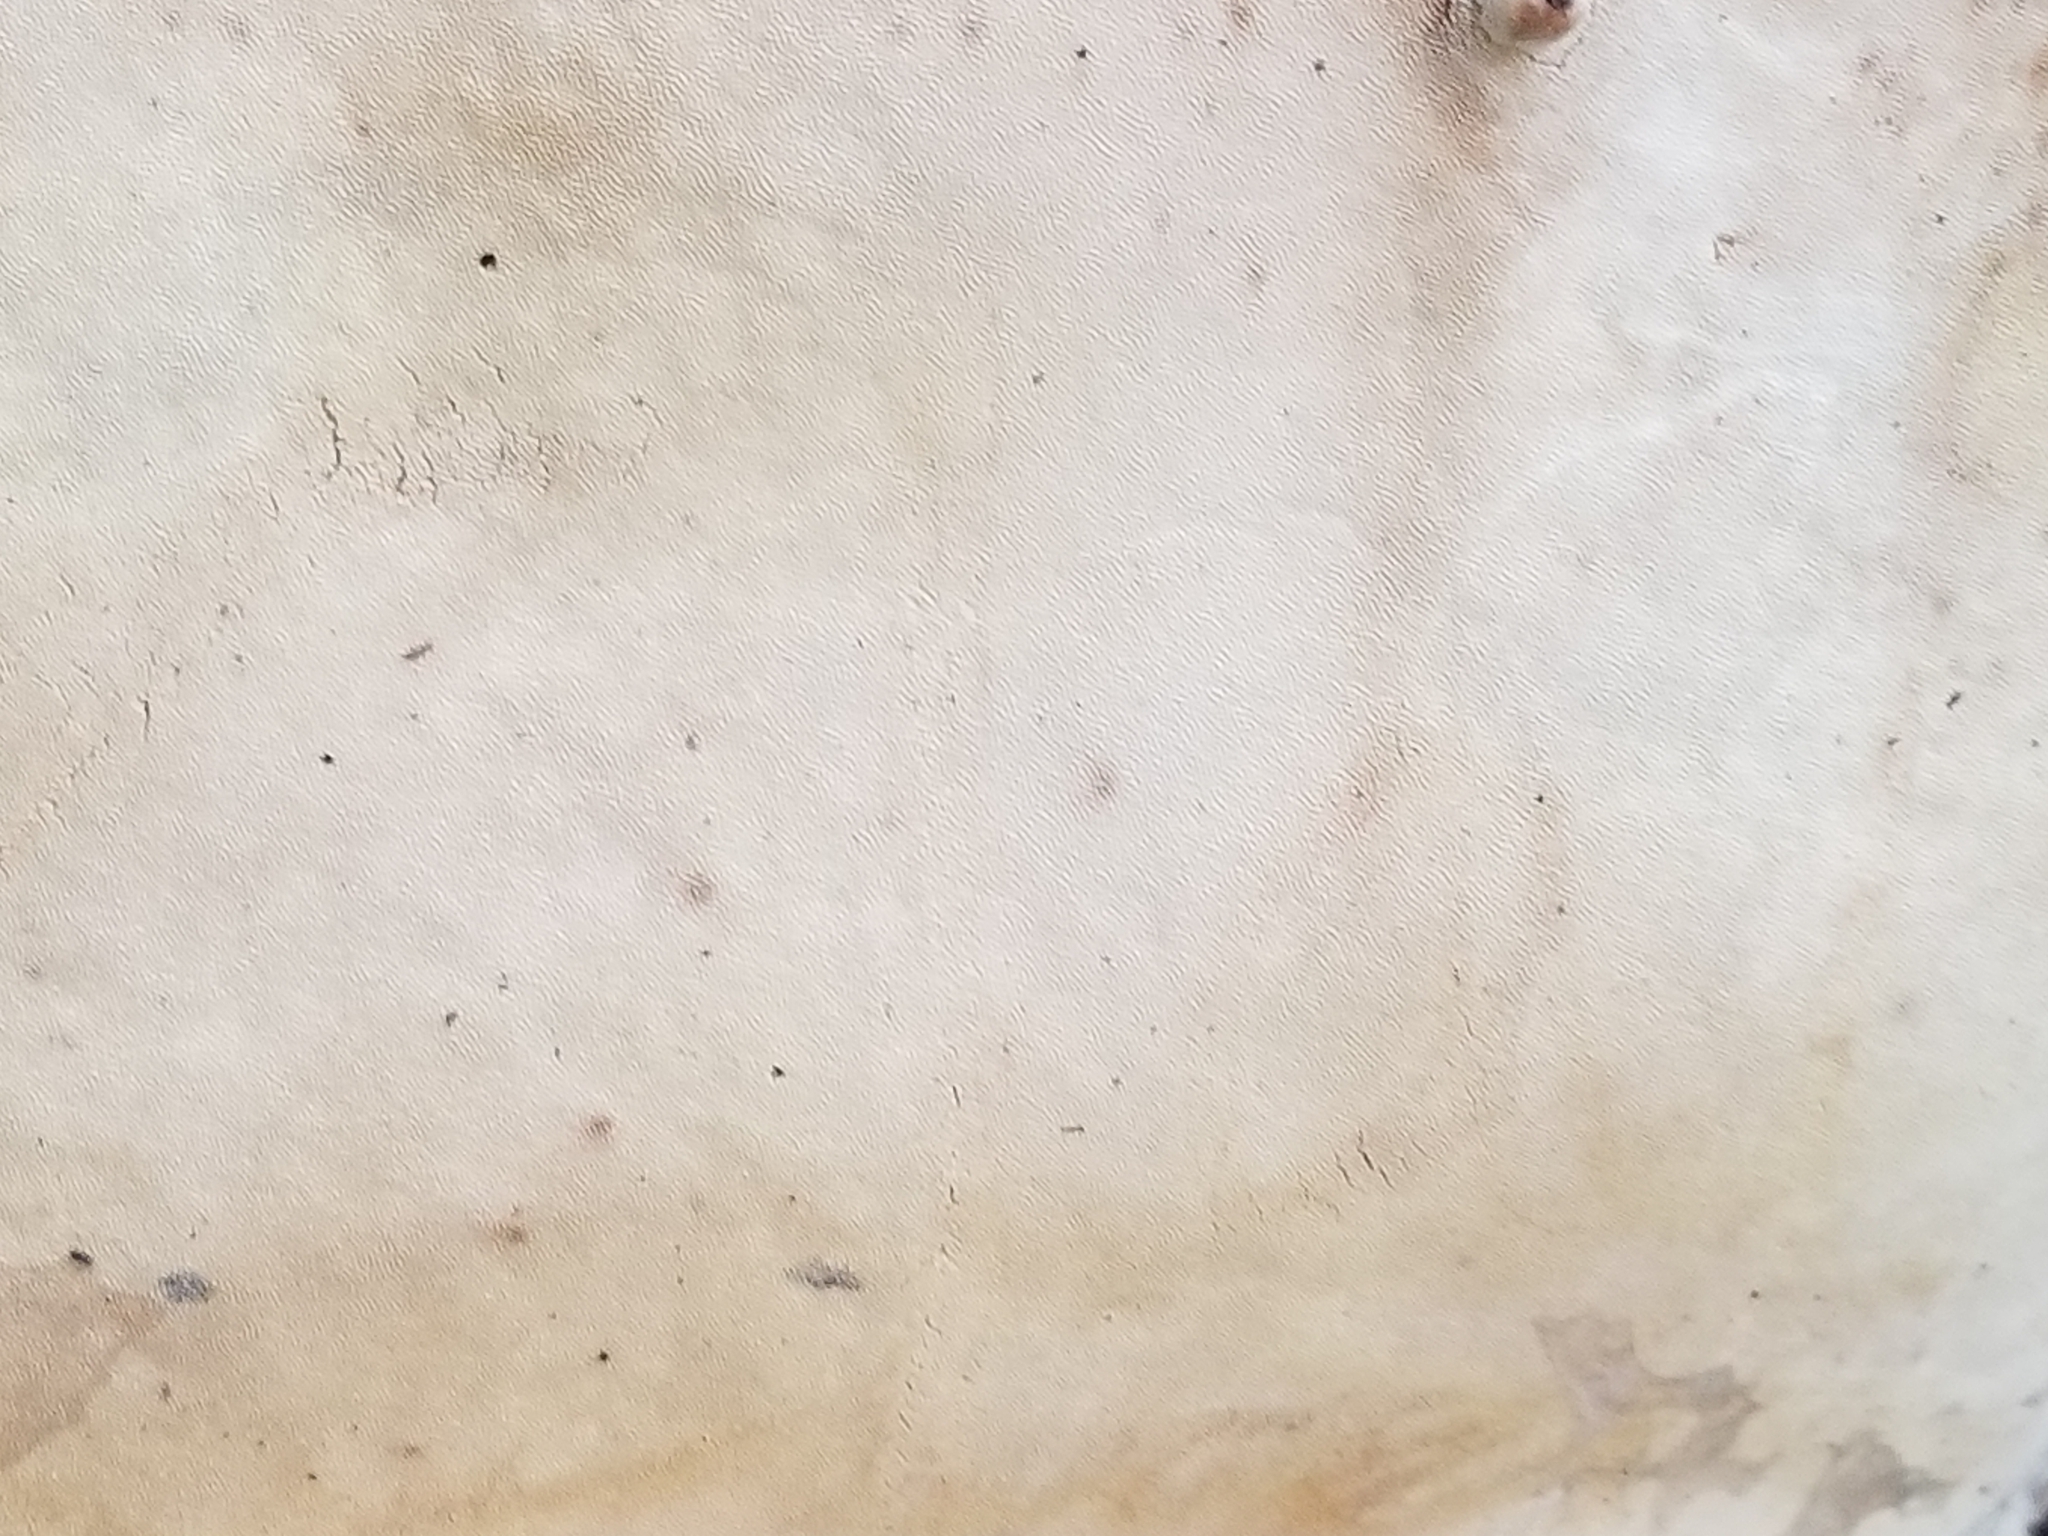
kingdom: Fungi
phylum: Basidiomycota
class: Agaricomycetes
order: Polyporales
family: Fomitopsidaceae
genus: Fomitopsis
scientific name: Fomitopsis mounceae
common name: Northern red belt
